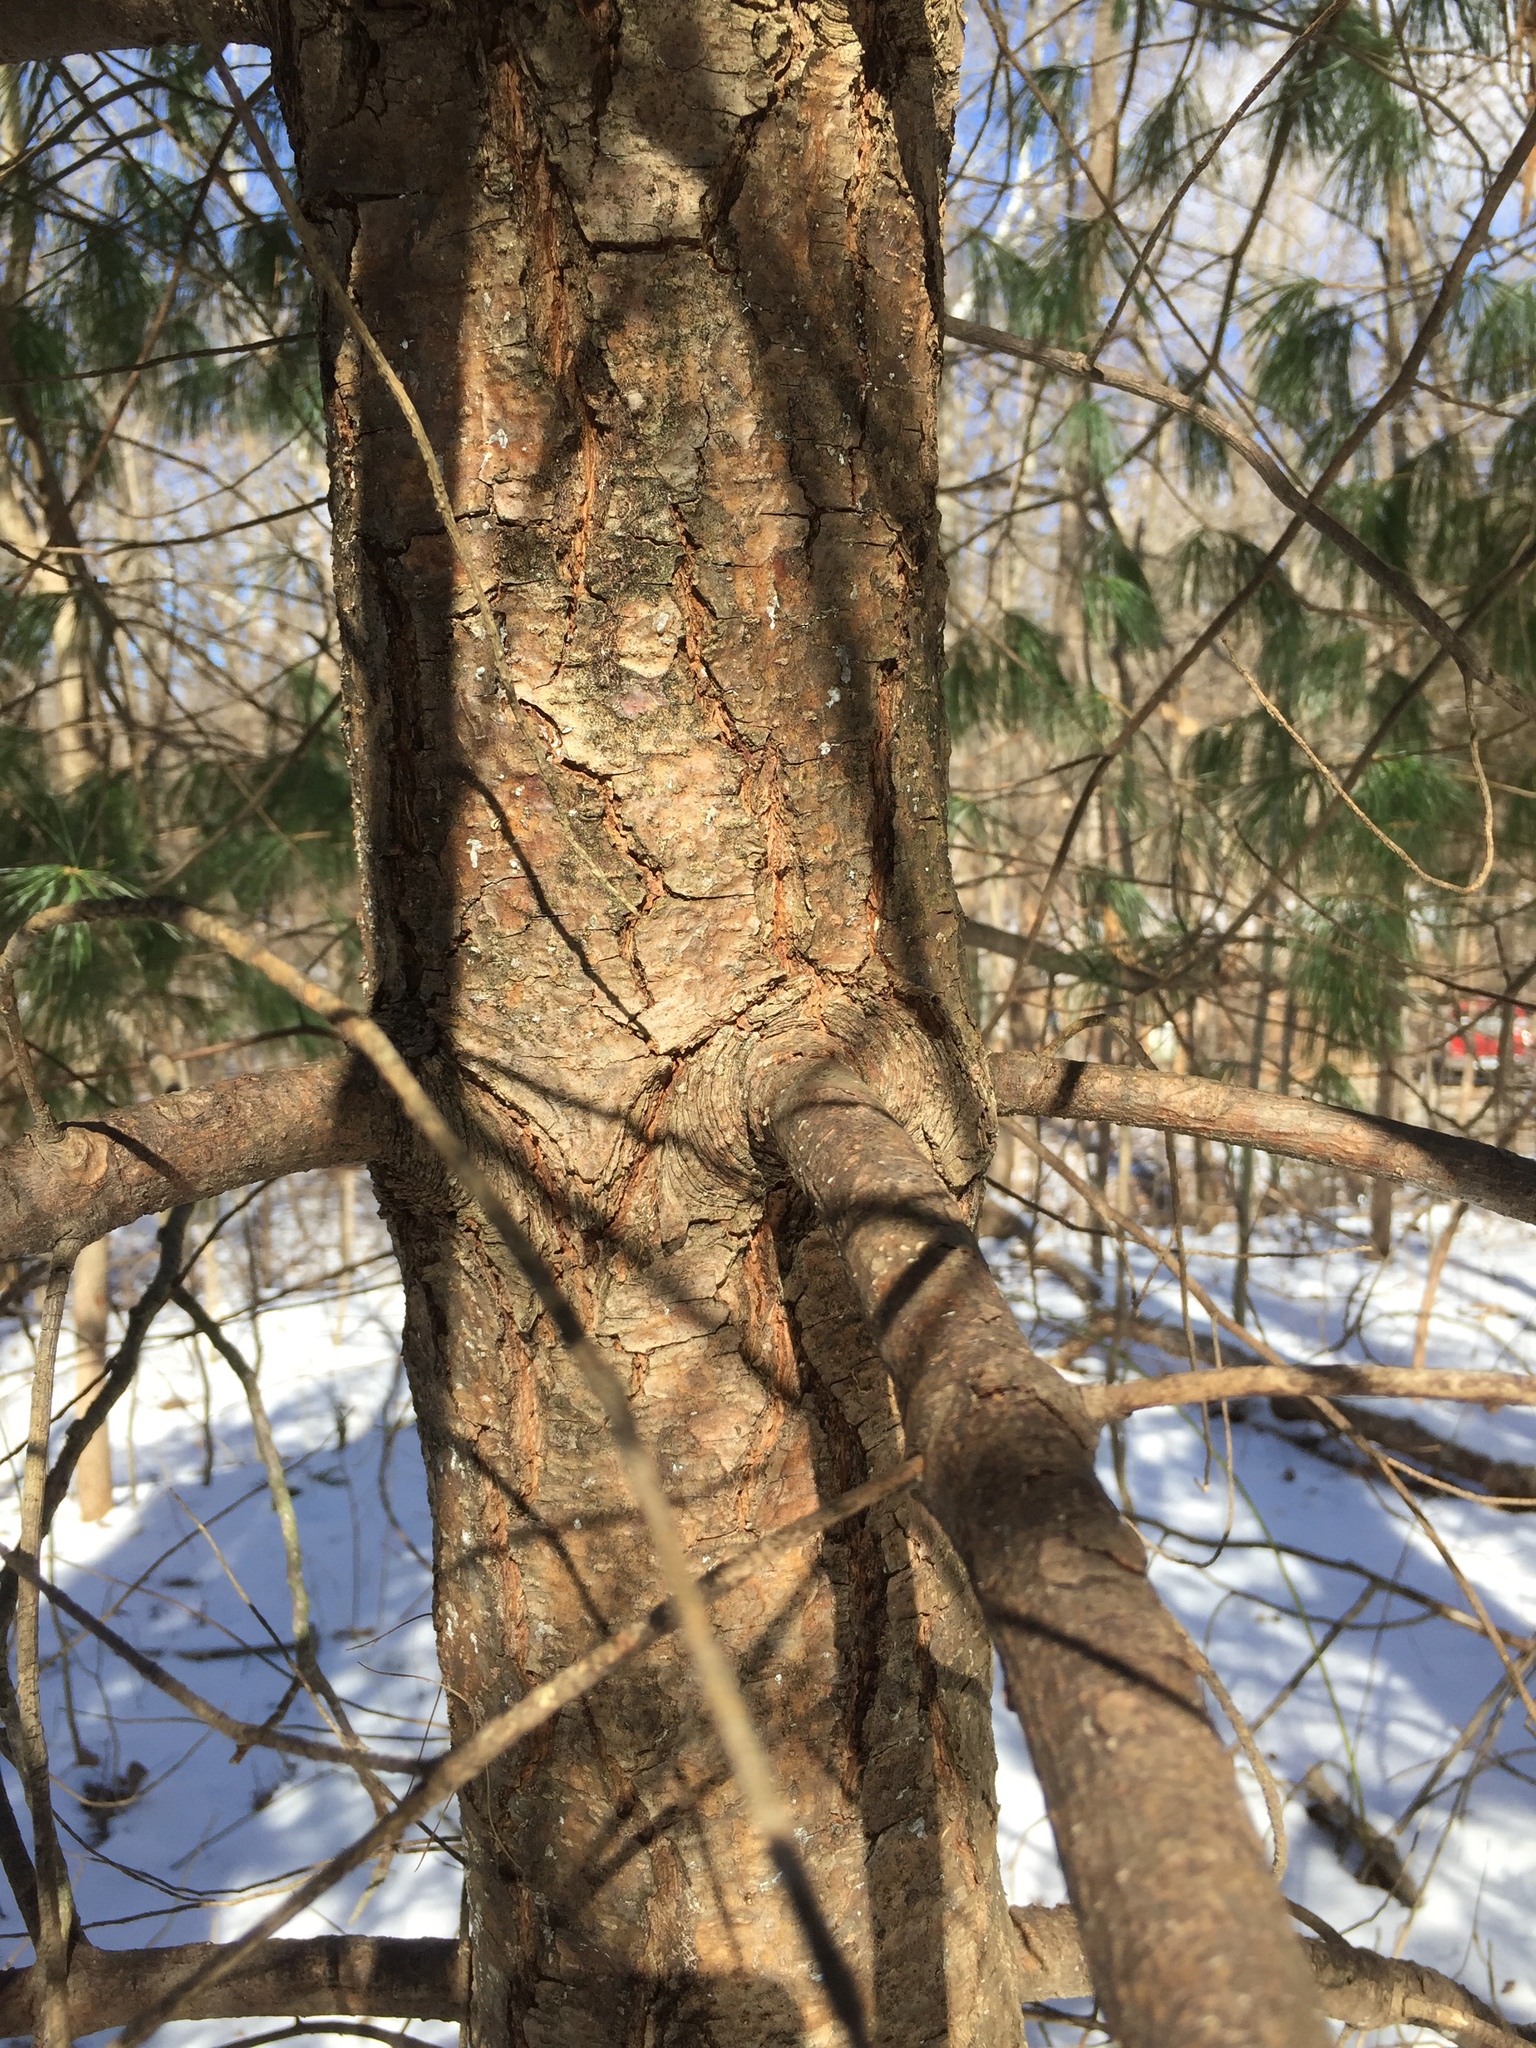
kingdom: Plantae
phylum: Tracheophyta
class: Pinopsida
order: Pinales
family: Pinaceae
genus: Pinus
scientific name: Pinus strobus
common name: Weymouth pine
